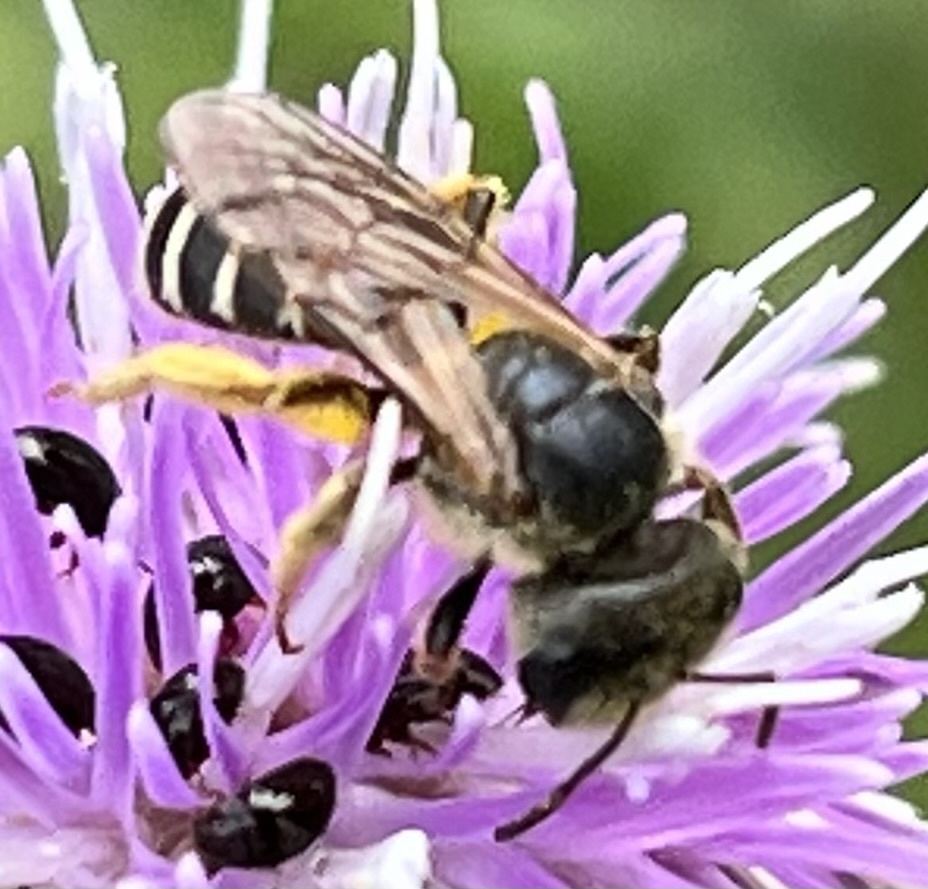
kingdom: Animalia
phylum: Arthropoda
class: Insecta
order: Hymenoptera
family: Halictidae
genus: Halictus
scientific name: Halictus ligatus
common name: Ligated furrow bee
